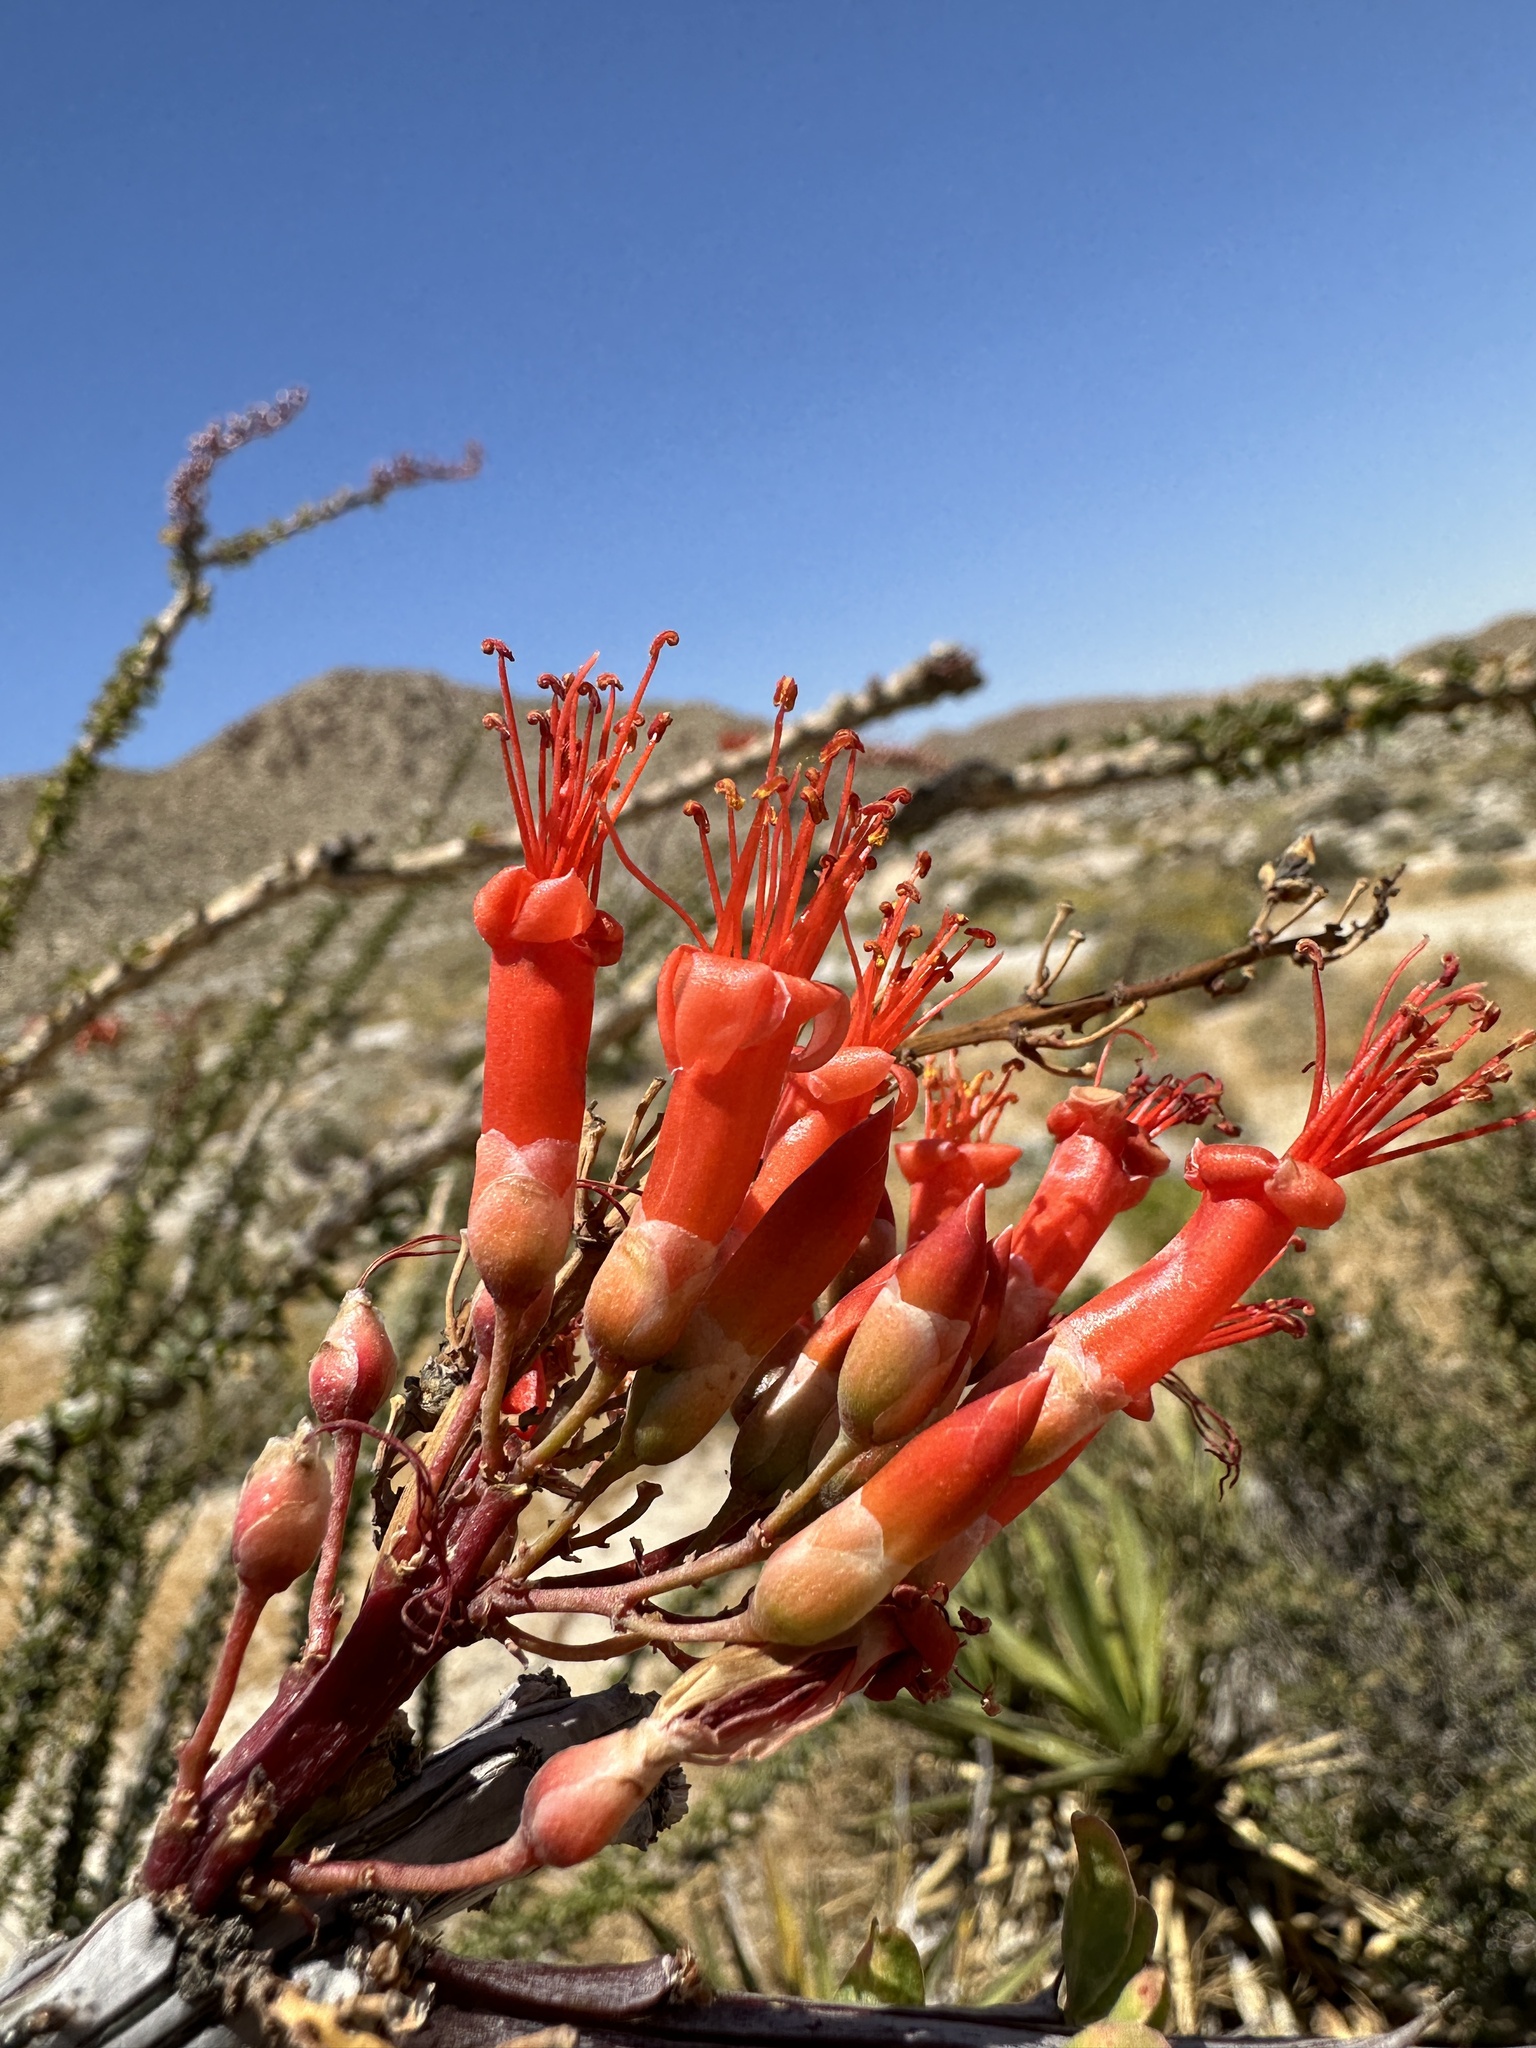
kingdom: Plantae
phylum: Tracheophyta
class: Magnoliopsida
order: Ericales
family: Fouquieriaceae
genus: Fouquieria
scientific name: Fouquieria splendens
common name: Vine-cactus
